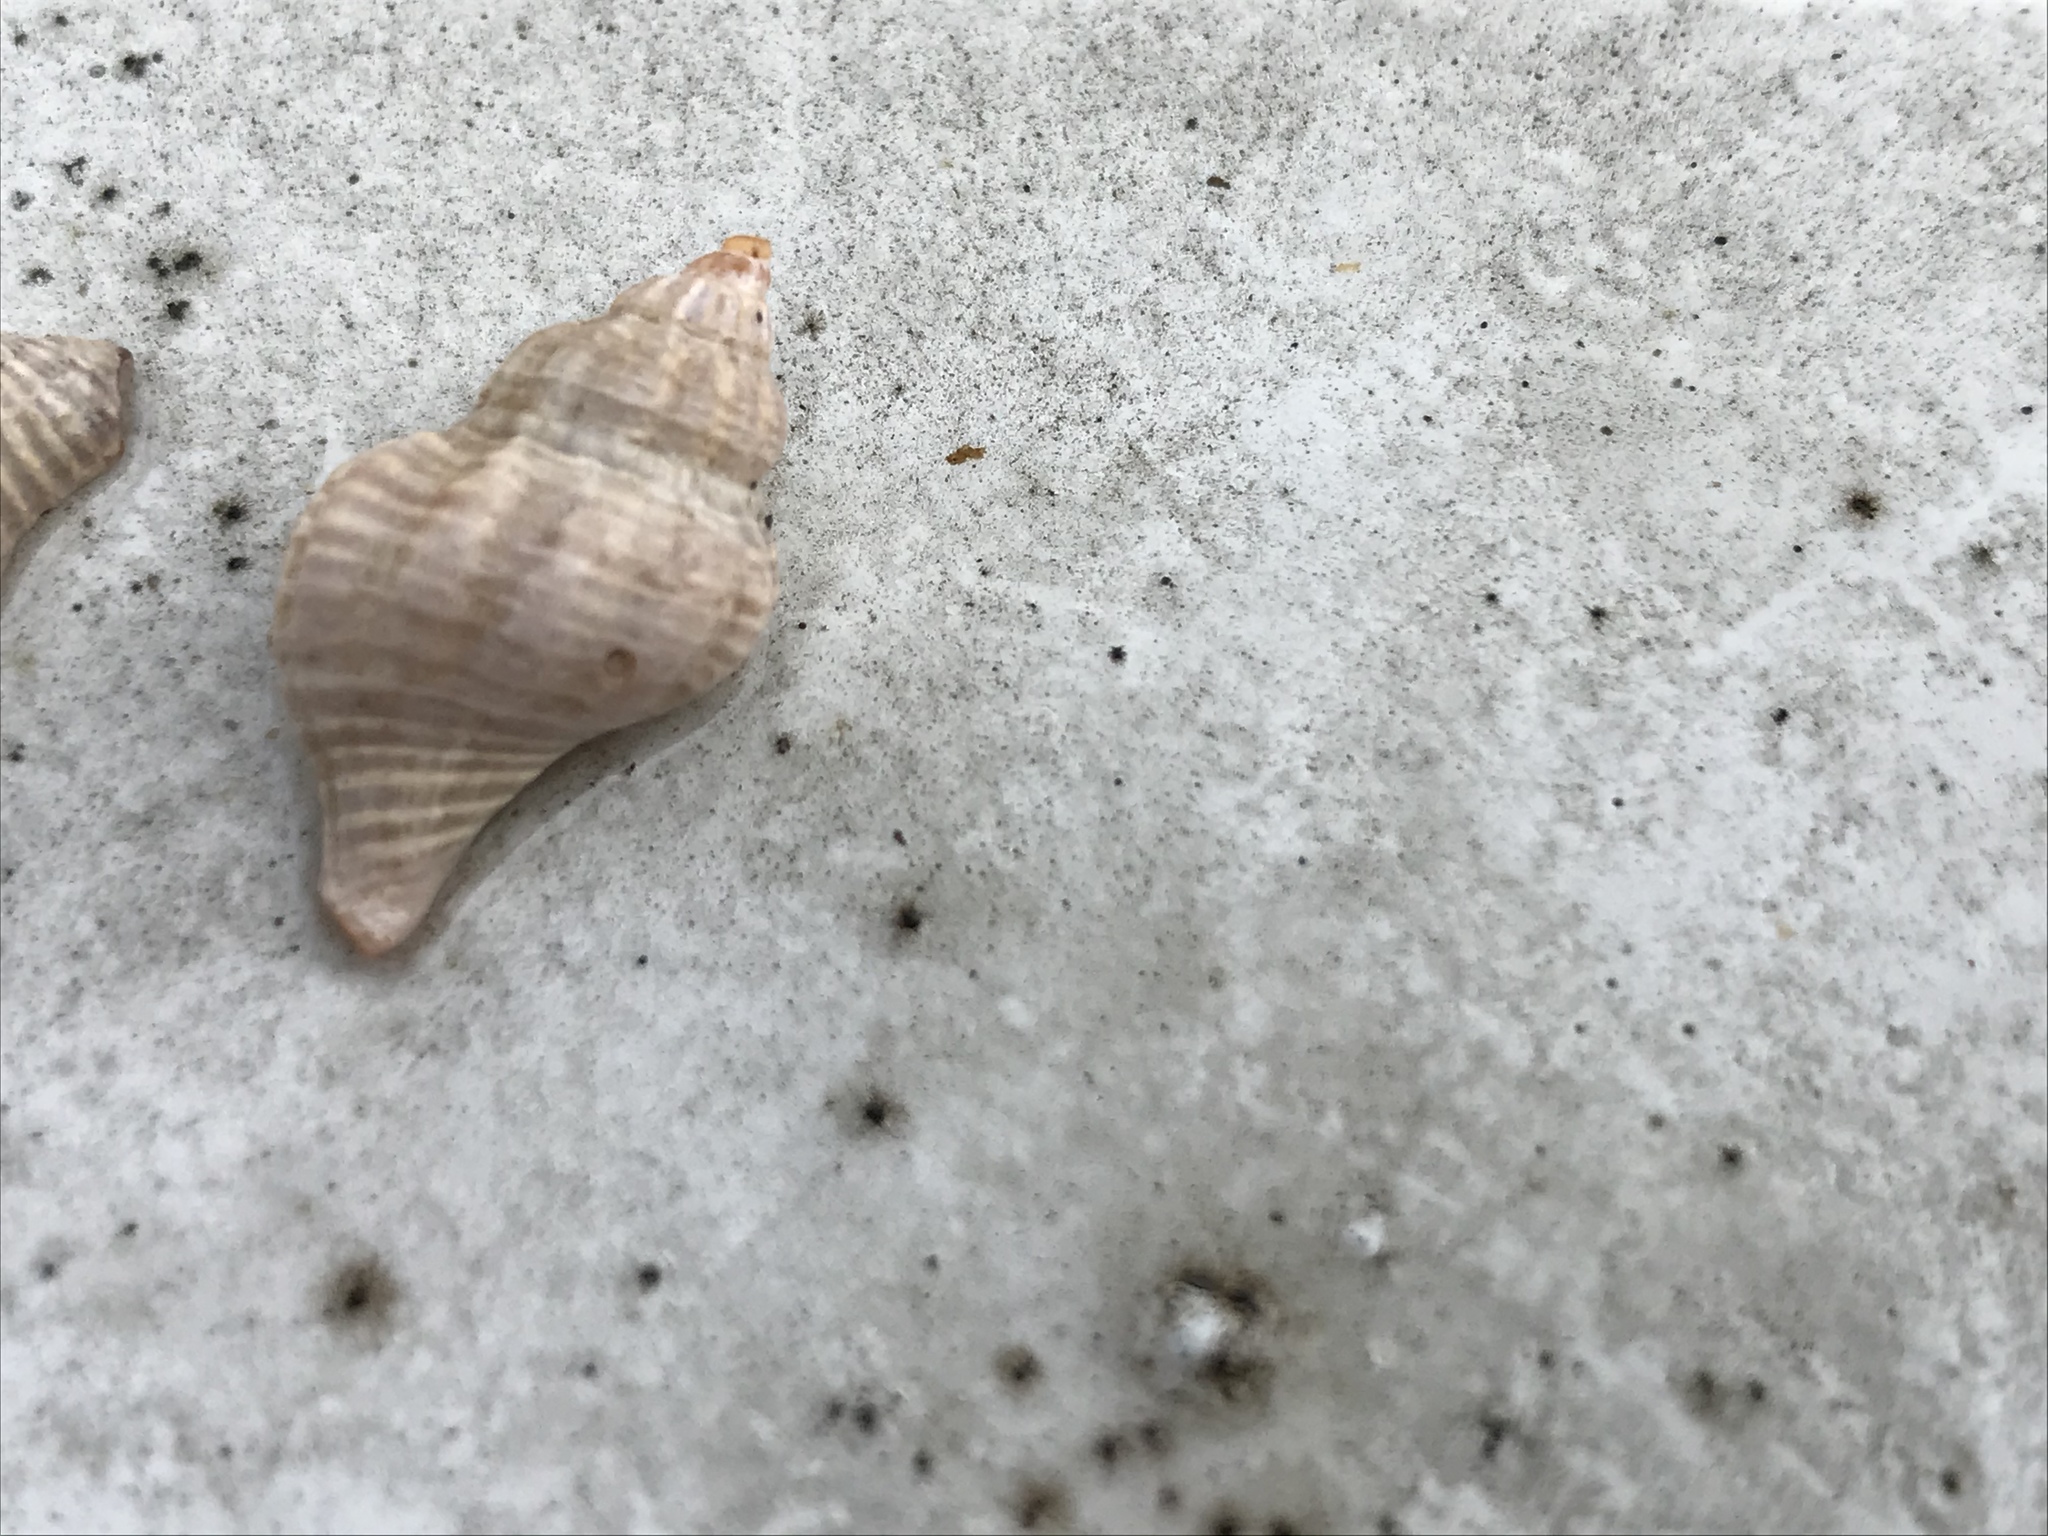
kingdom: Animalia
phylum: Mollusca
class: Gastropoda
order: Neogastropoda
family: Muricidae
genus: Urosalpinx
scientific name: Urosalpinx cinerea
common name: American sting winkle
